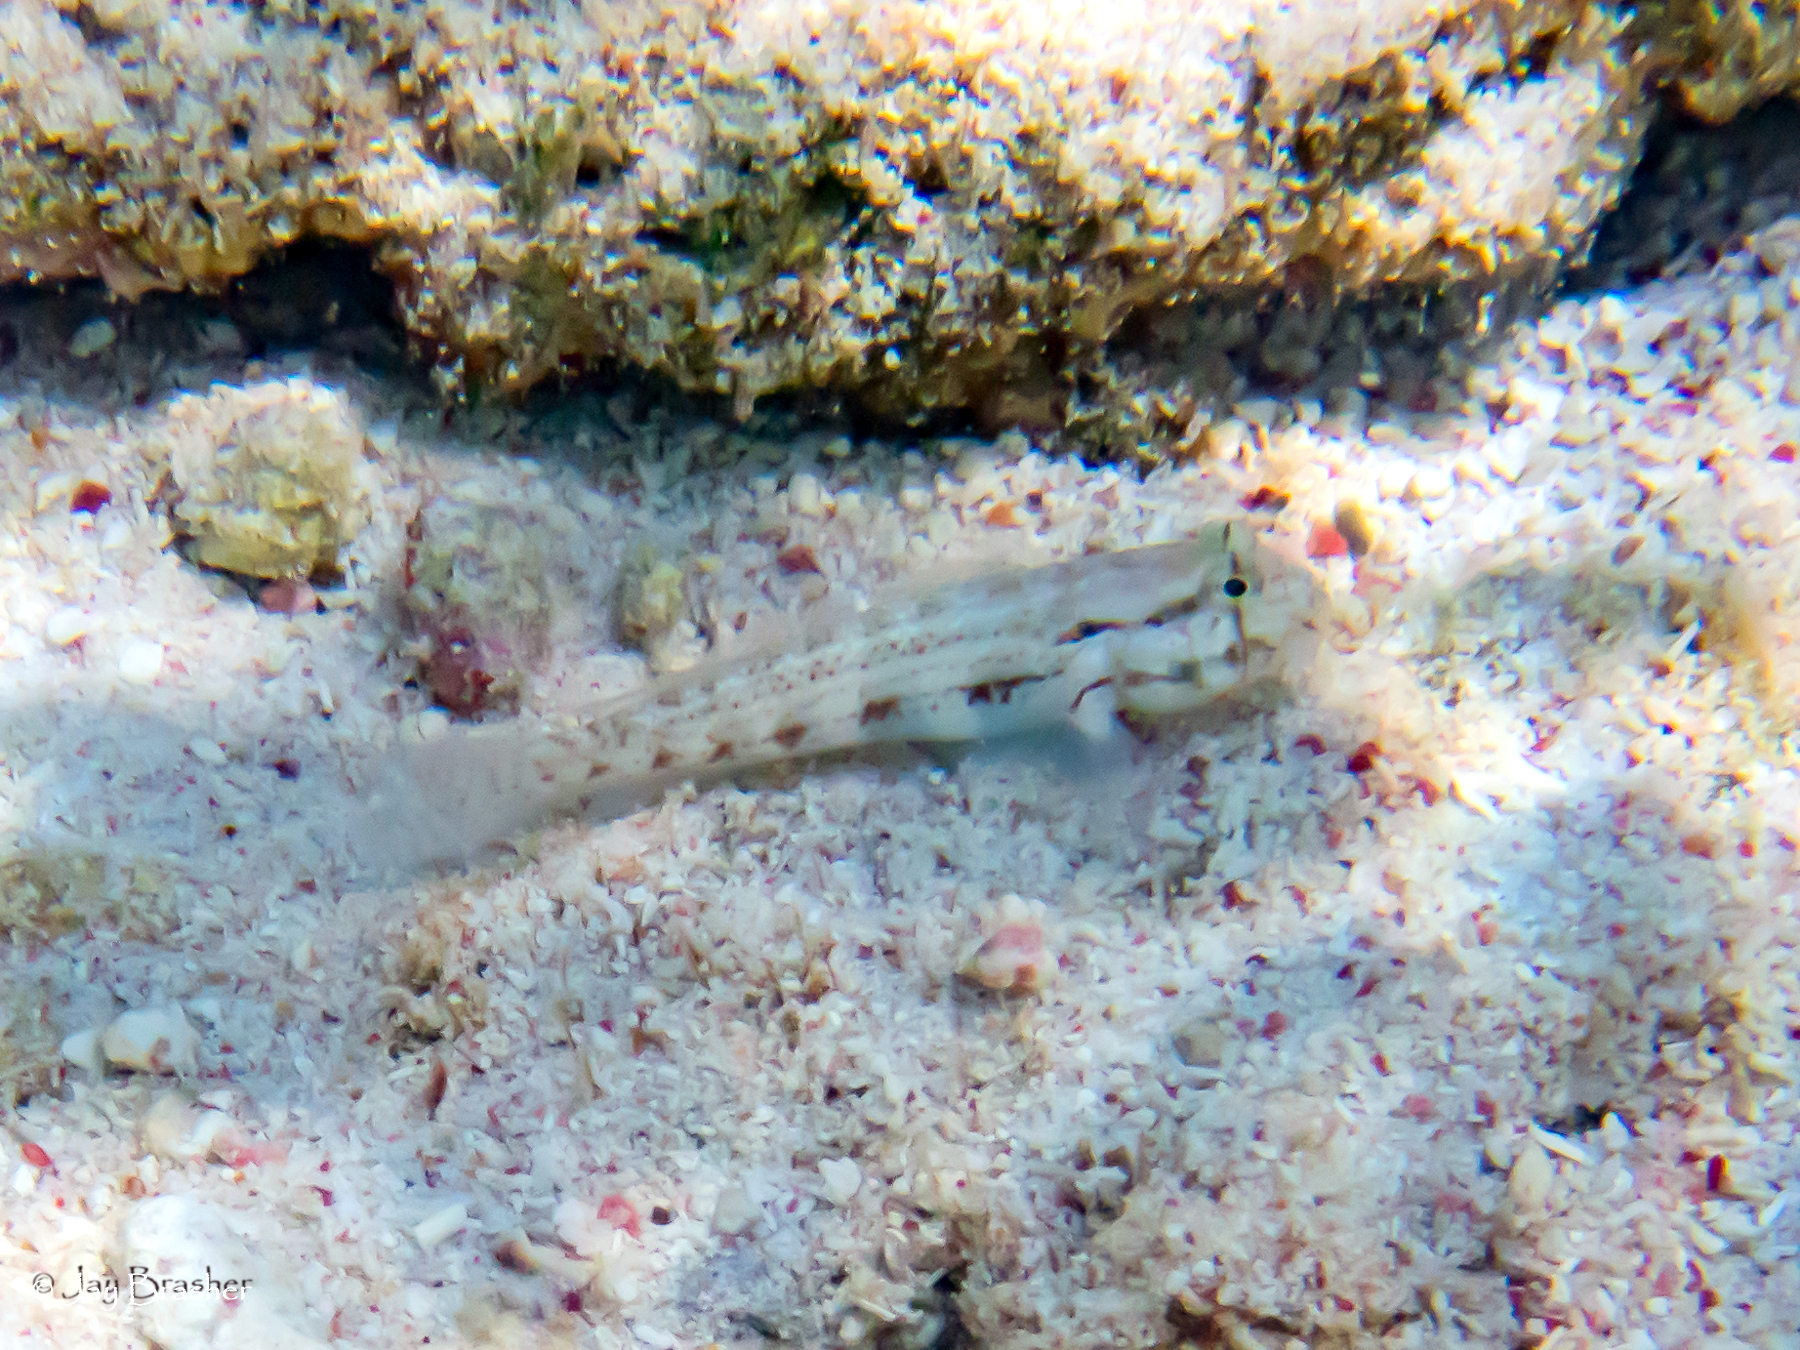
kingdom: Animalia
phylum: Chordata
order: Perciformes
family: Gobiidae
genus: Gnatholepis
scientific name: Gnatholepis thompsoni
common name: Goldspot goby
